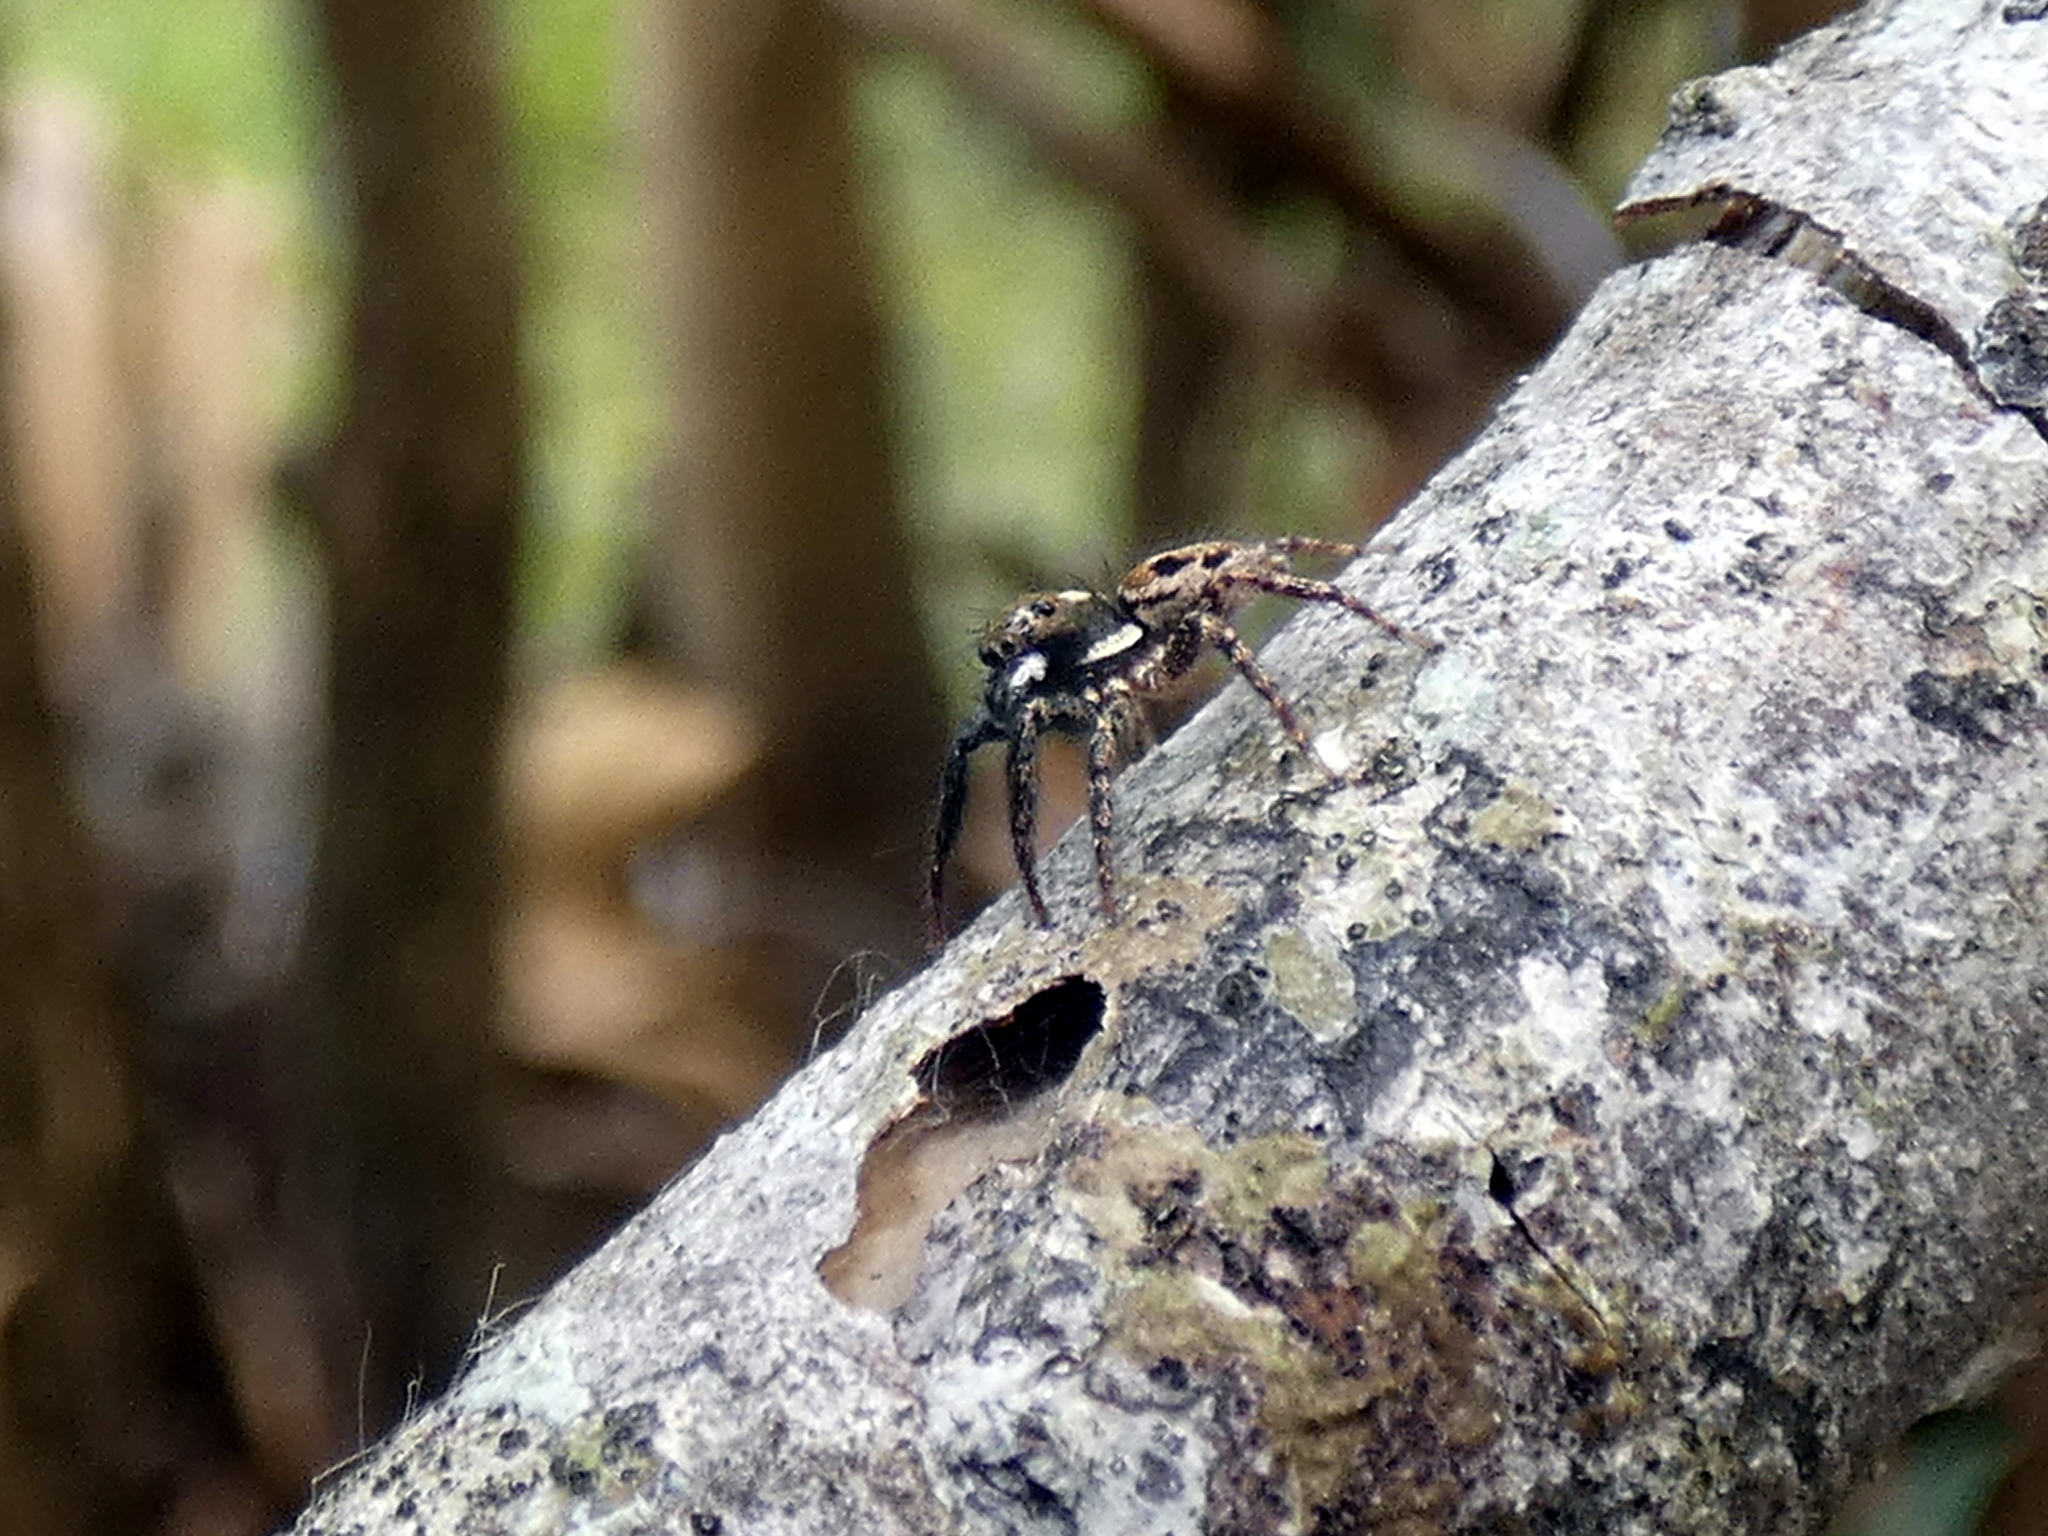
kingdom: Animalia
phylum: Arthropoda
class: Arachnida
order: Araneae
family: Salticidae
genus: Anasaitis
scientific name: Anasaitis canosa
